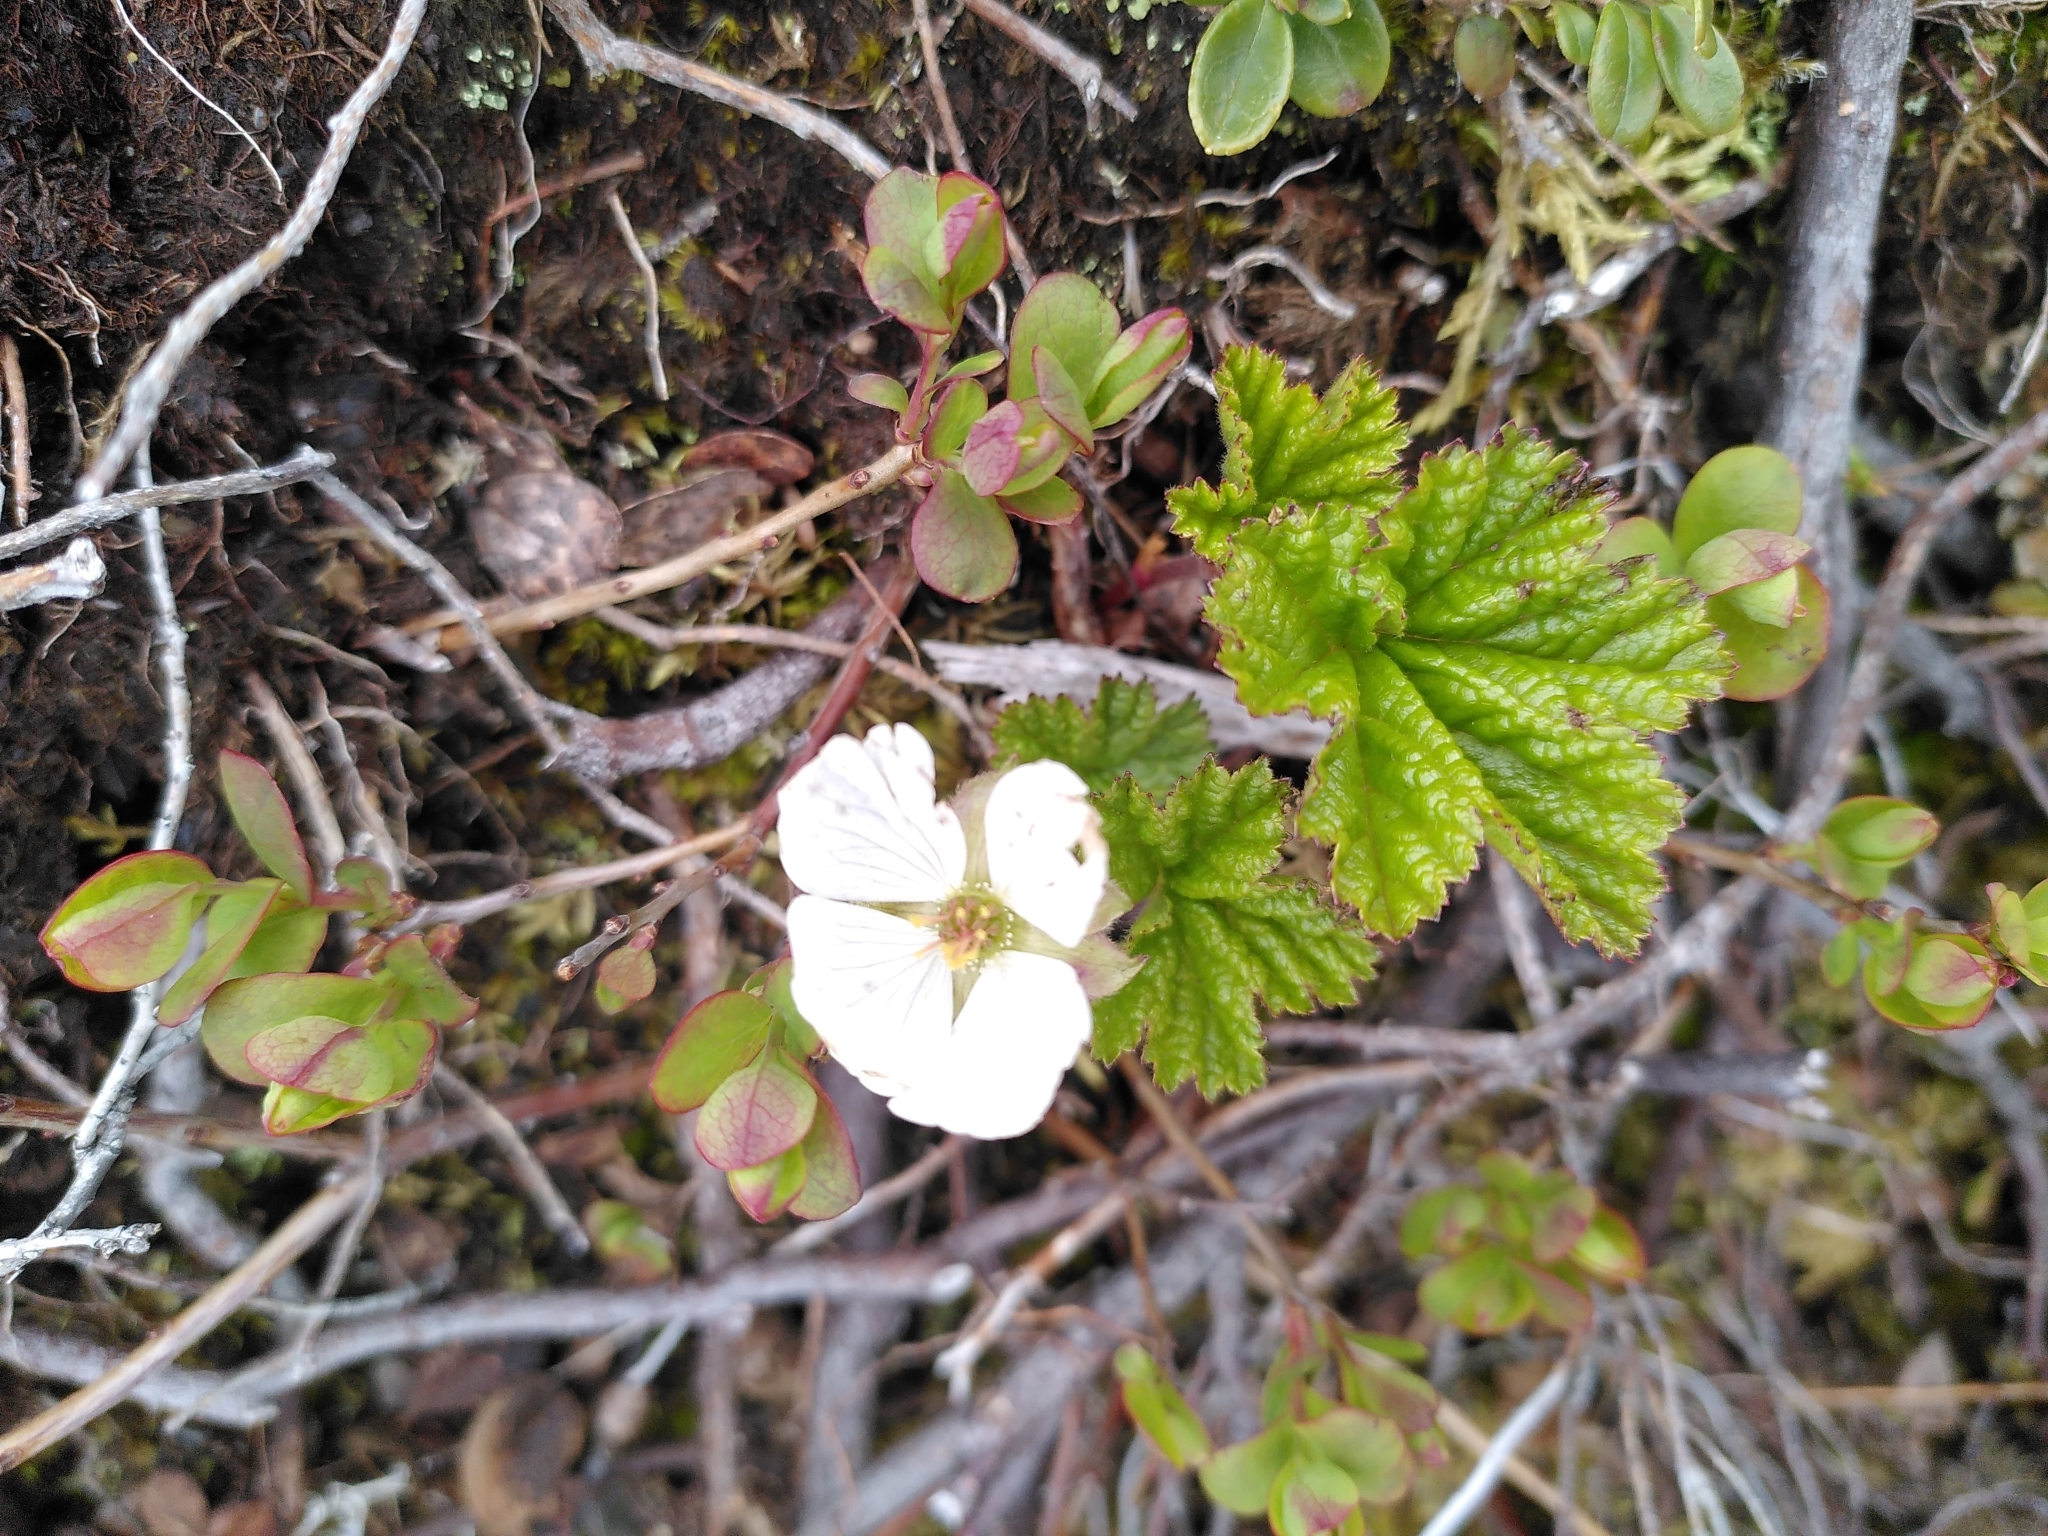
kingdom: Plantae
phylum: Tracheophyta
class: Magnoliopsida
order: Rosales
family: Rosaceae
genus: Rubus
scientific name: Rubus chamaemorus
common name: Cloudberry
